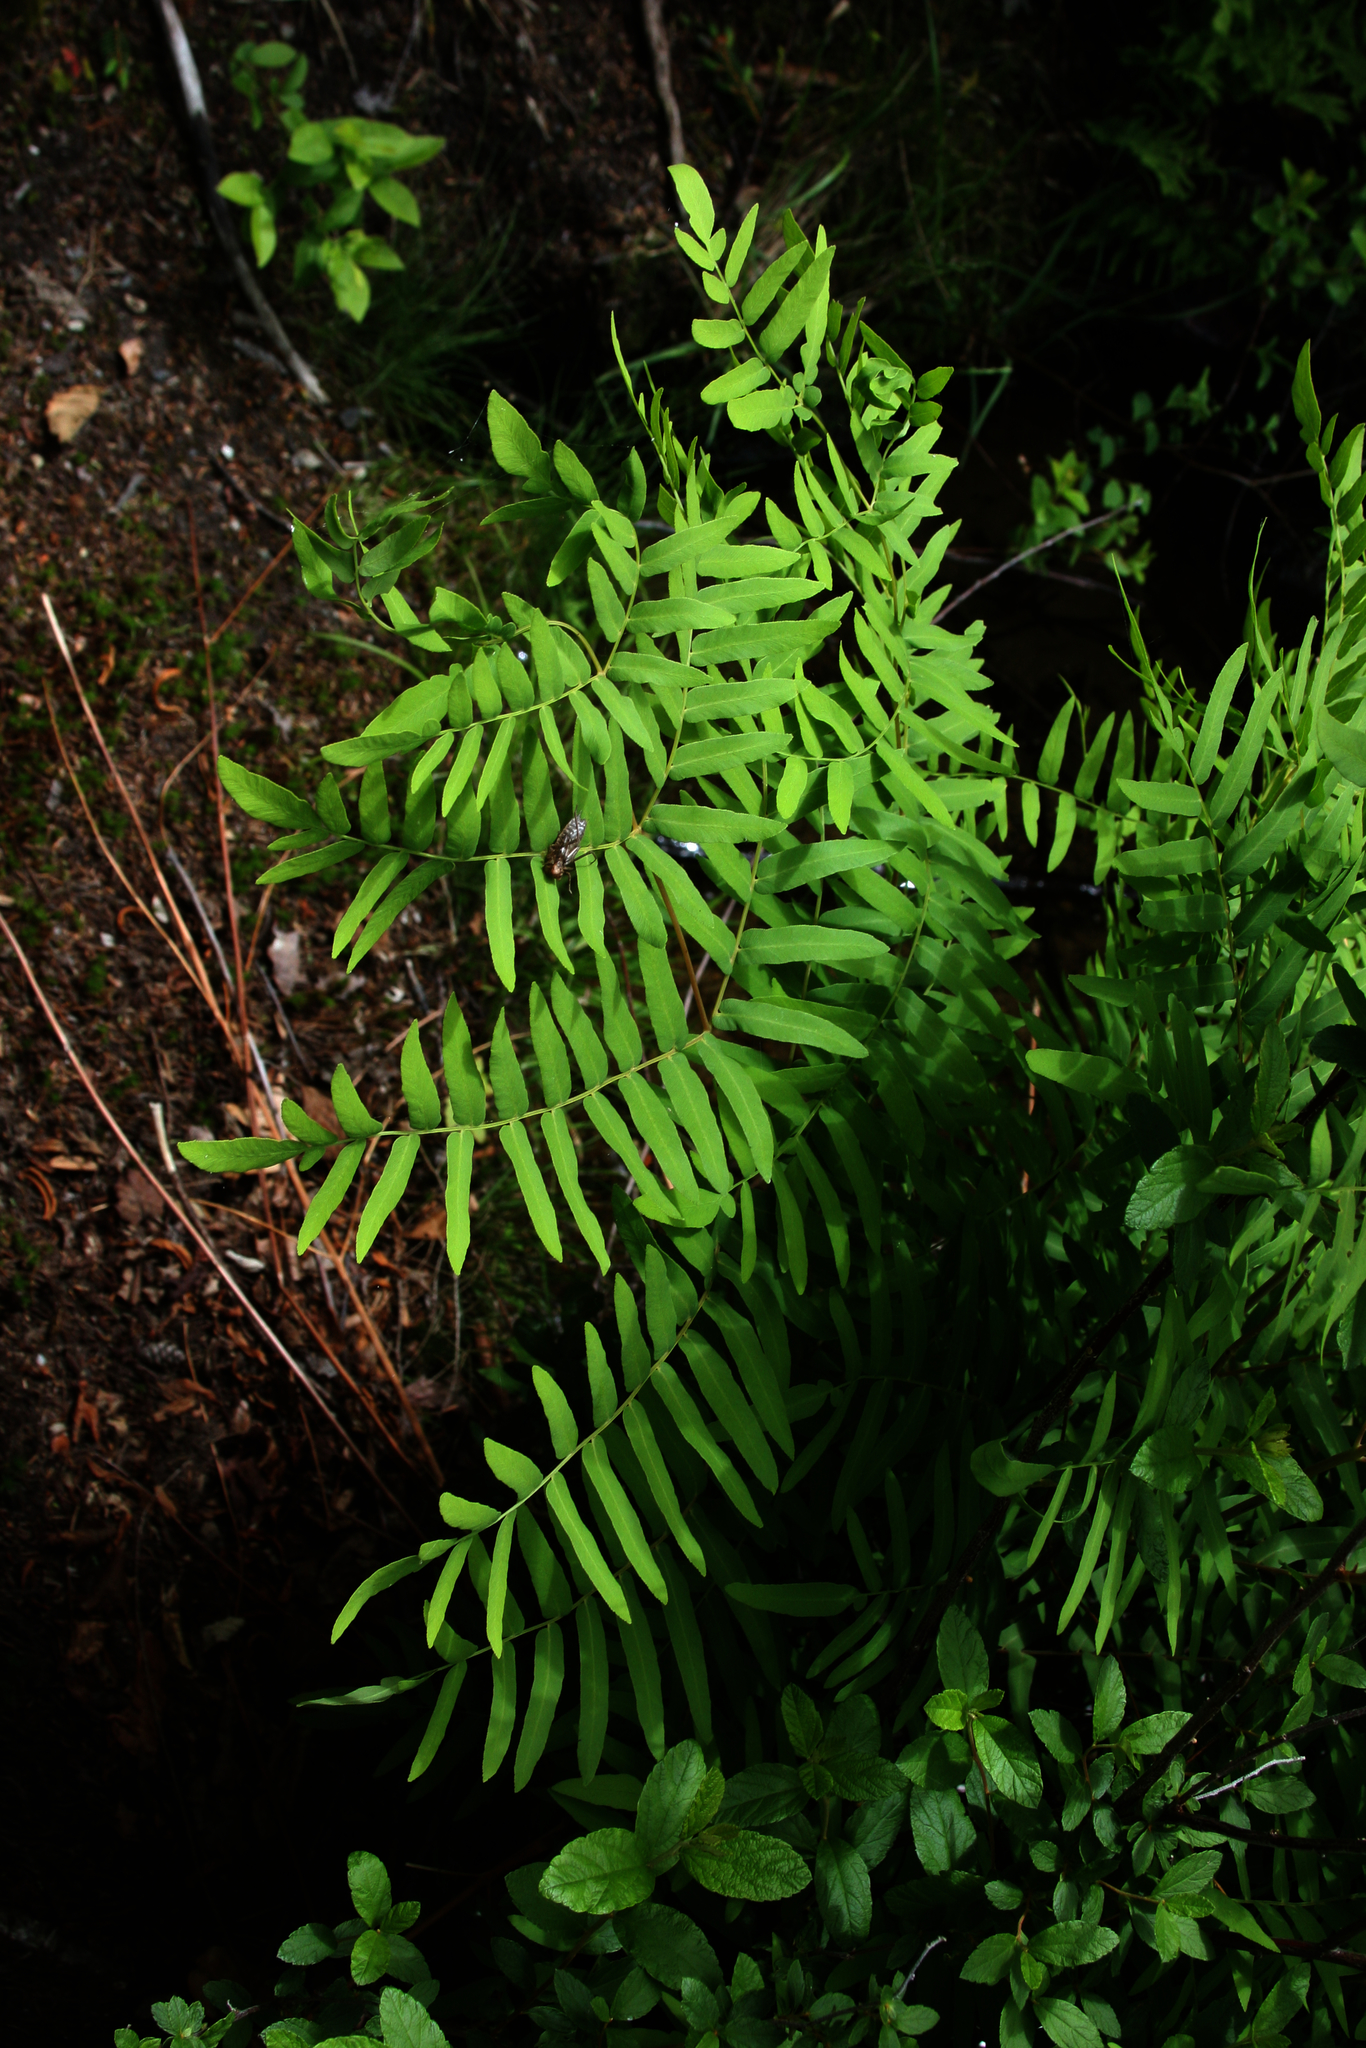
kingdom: Plantae
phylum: Tracheophyta
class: Polypodiopsida
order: Osmundales
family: Osmundaceae
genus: Osmunda
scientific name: Osmunda spectabilis
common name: American royal fern
